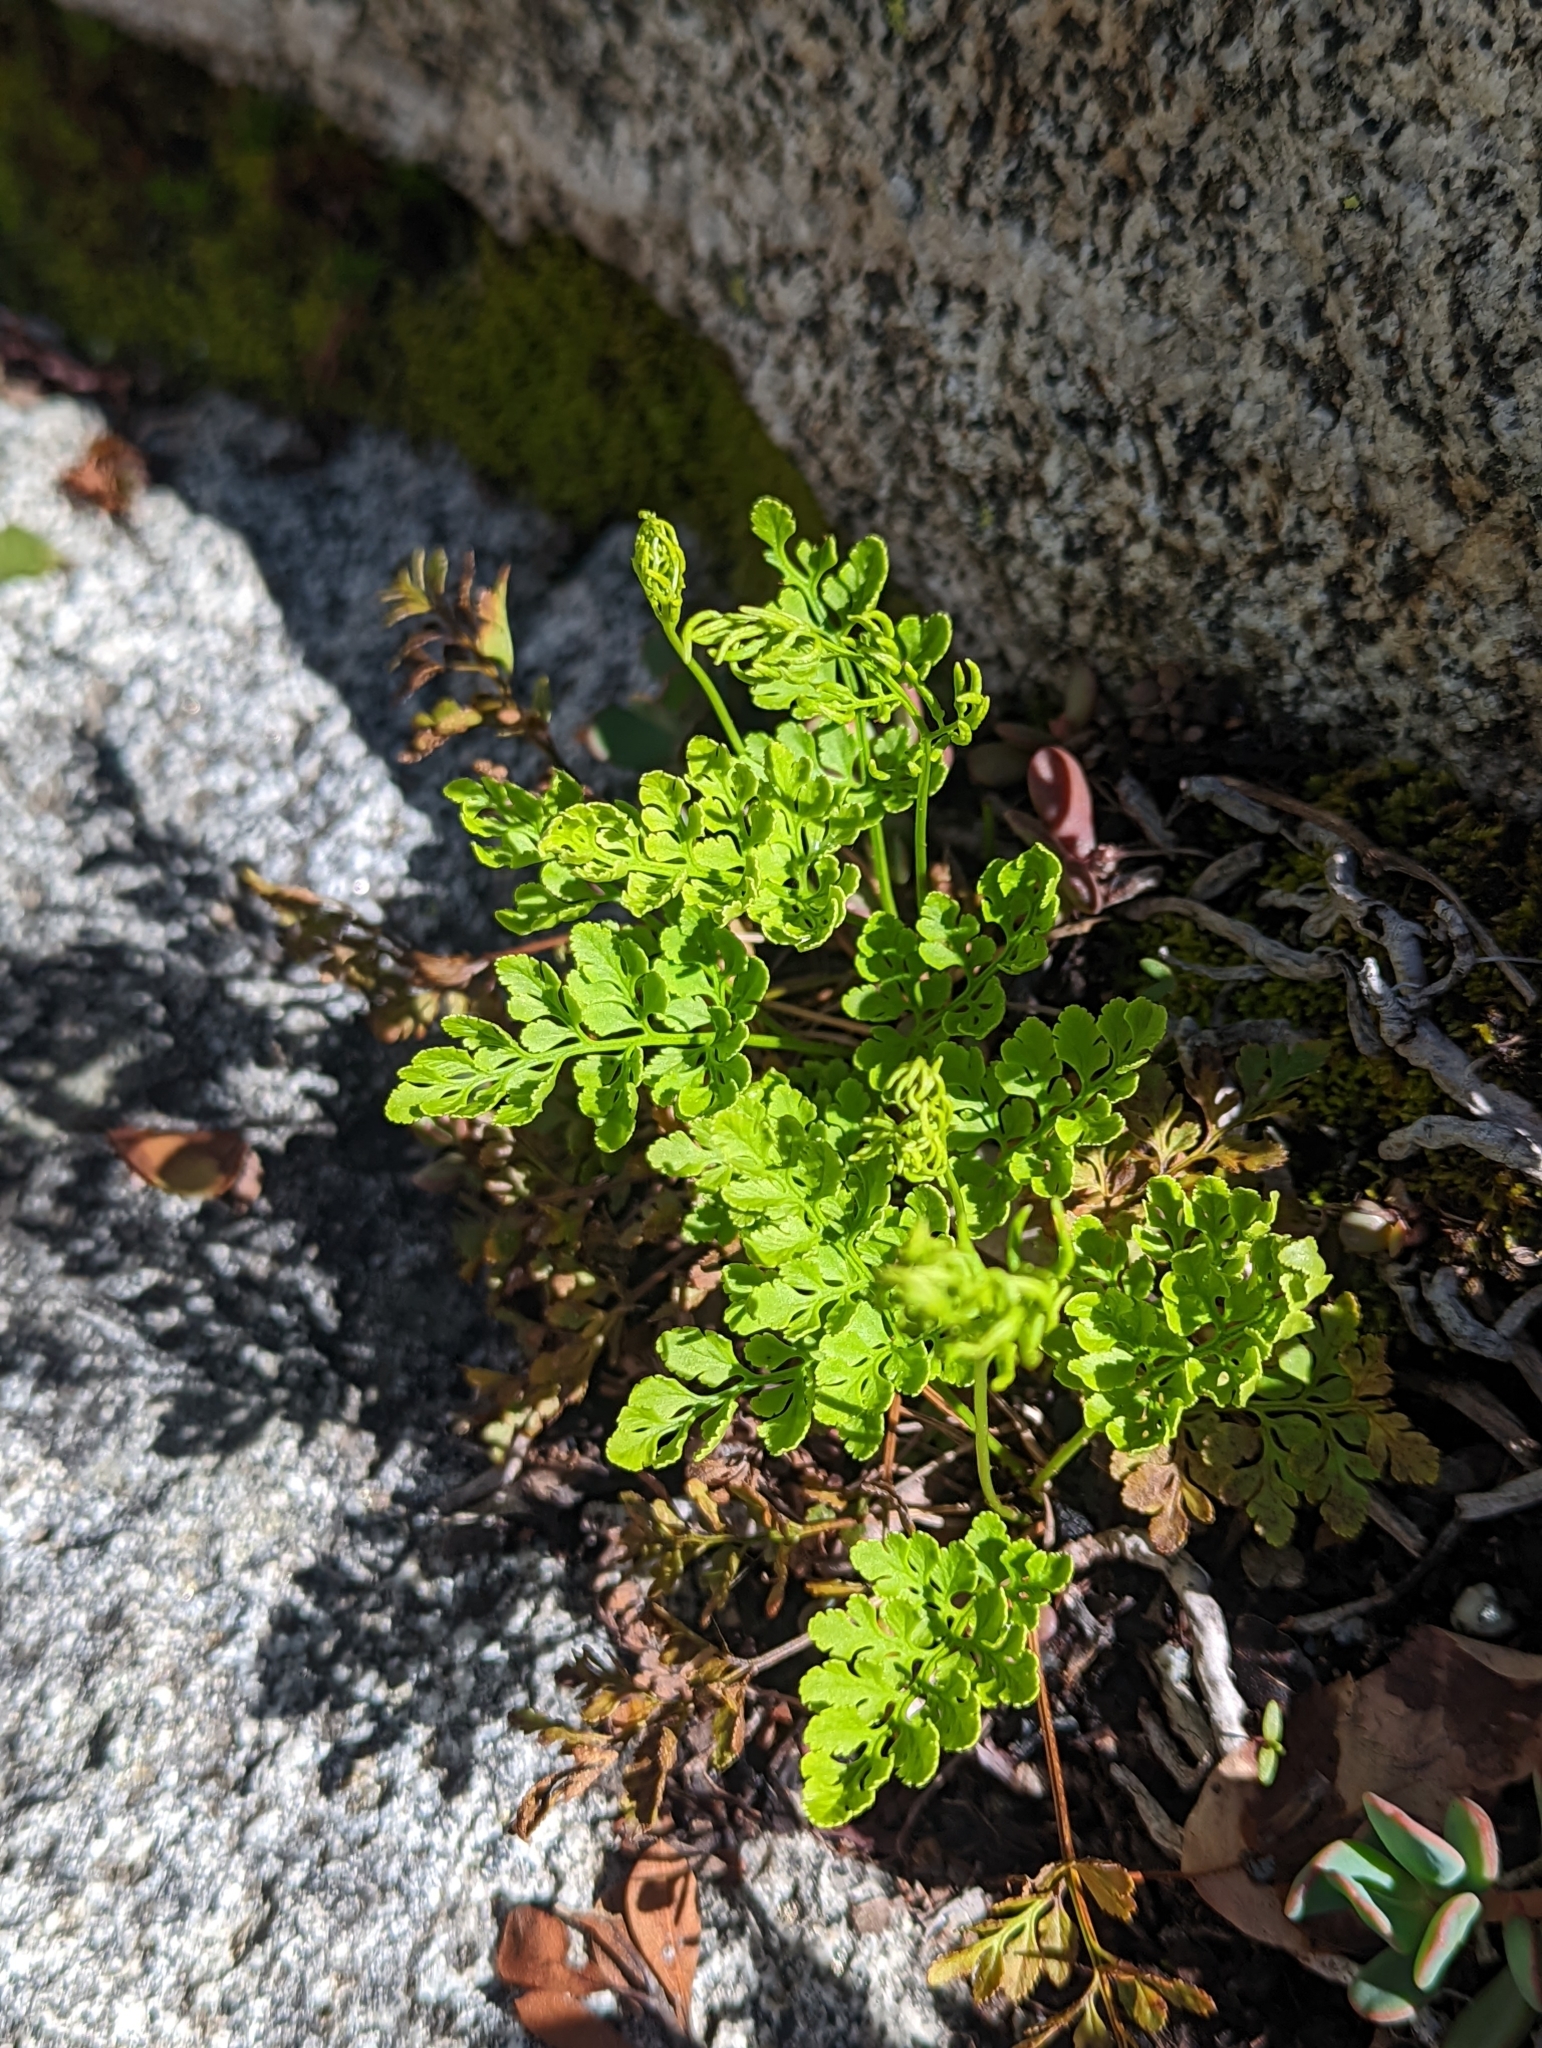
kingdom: Plantae
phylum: Tracheophyta
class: Polypodiopsida
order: Polypodiales
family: Pteridaceae
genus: Cryptogramma
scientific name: Cryptogramma acrostichoides
